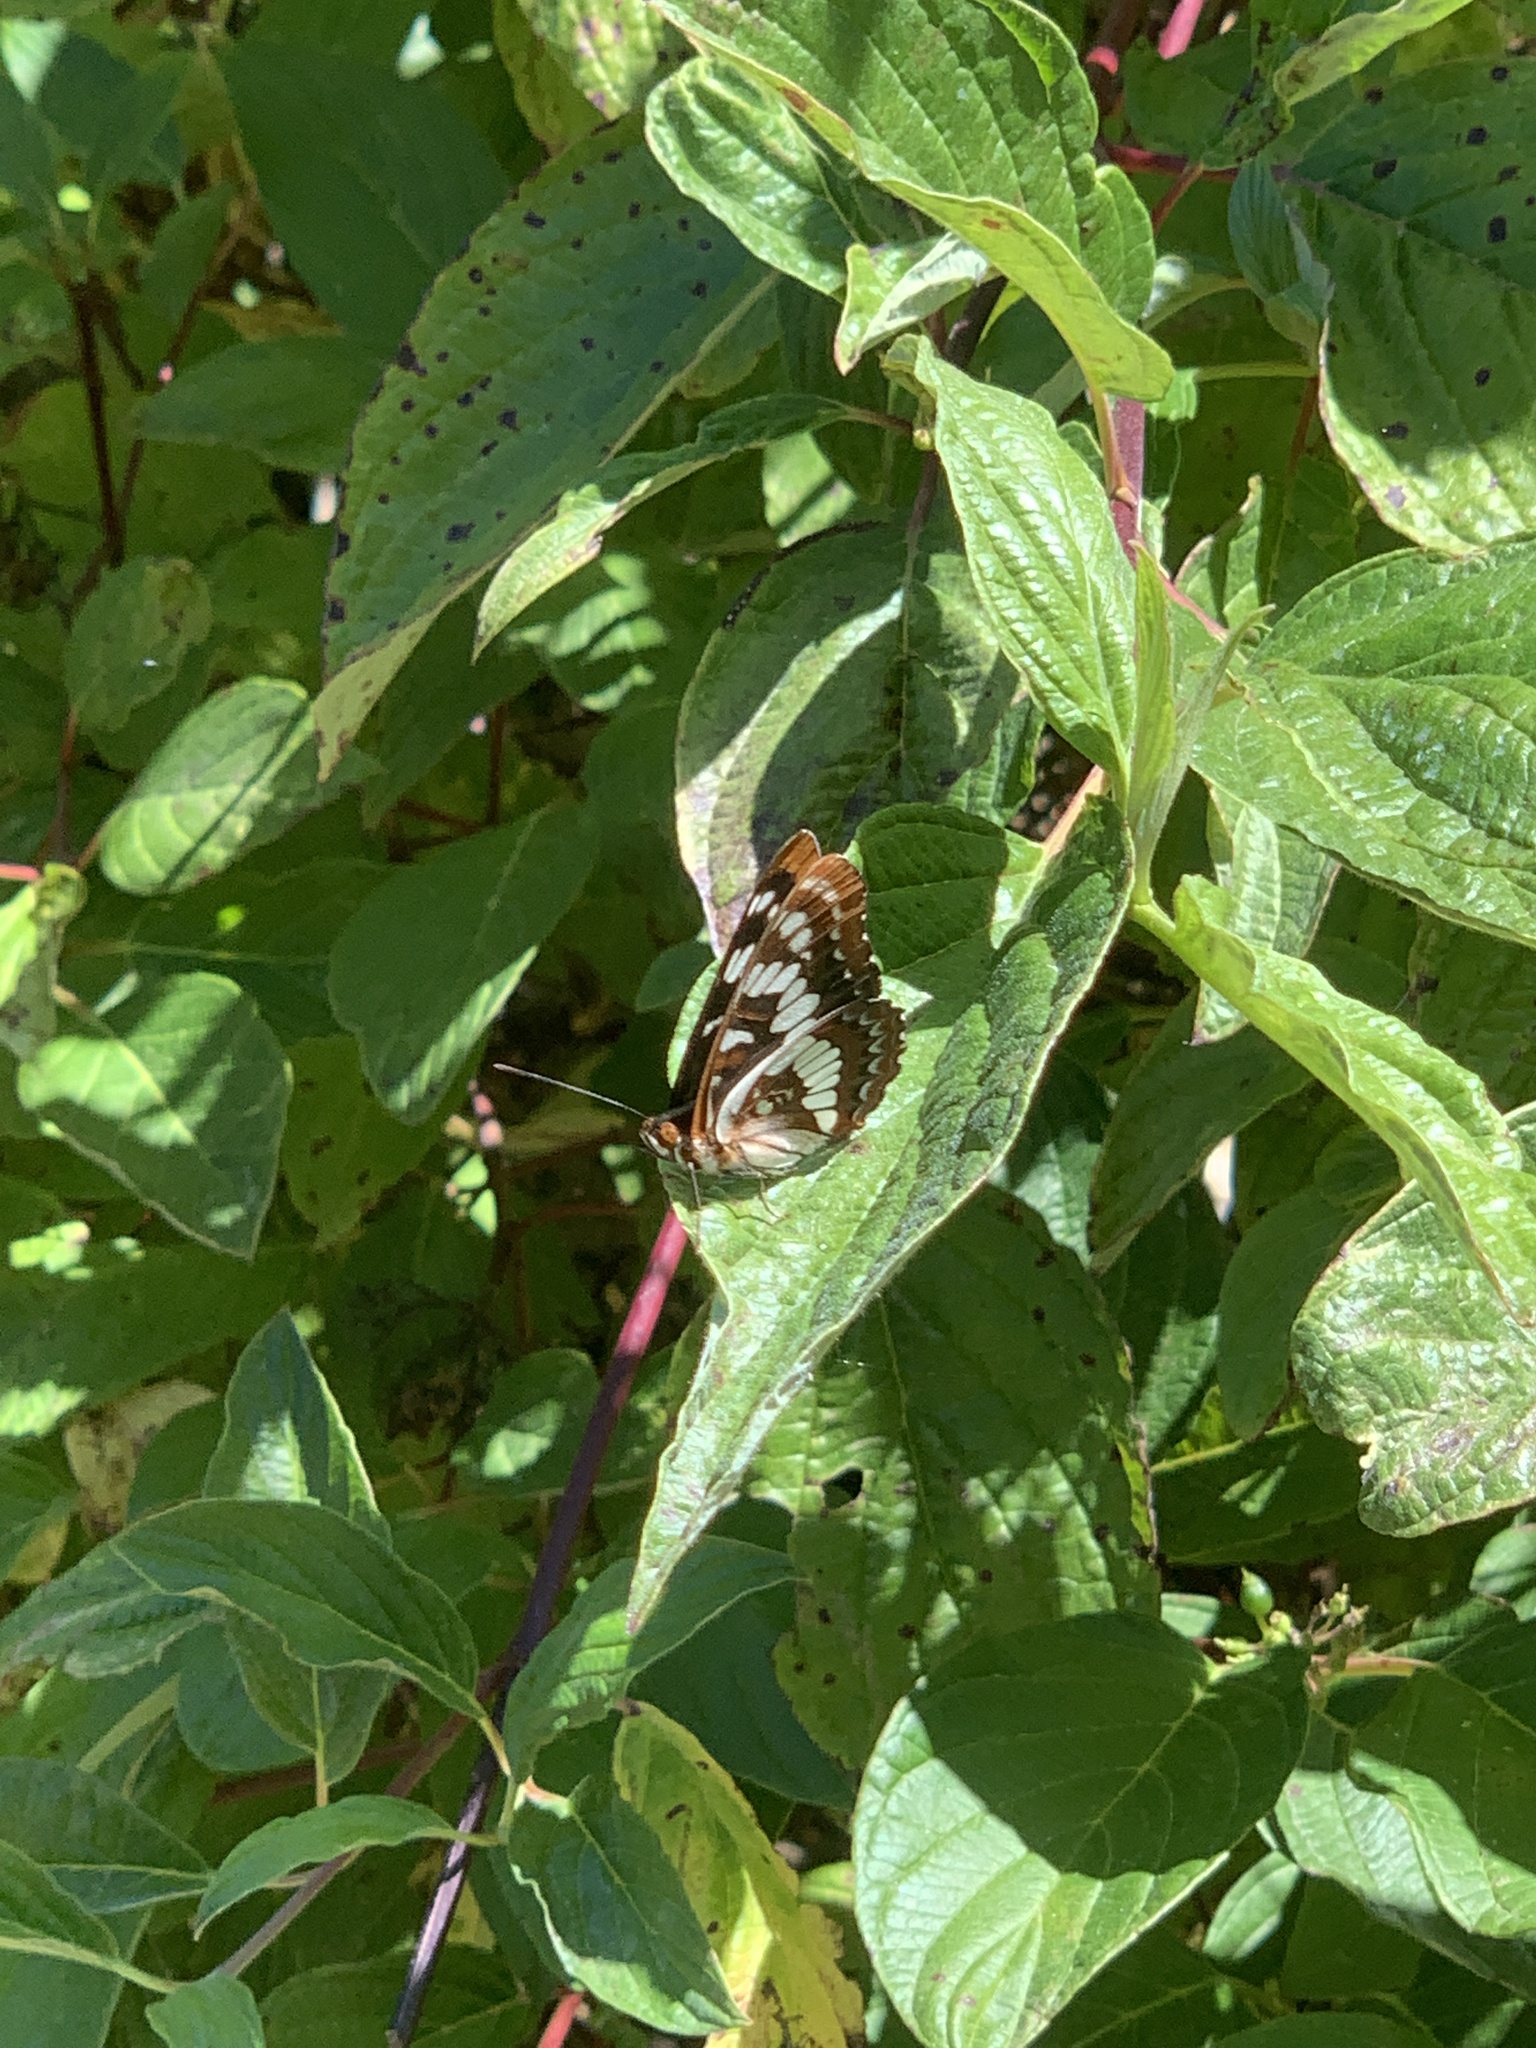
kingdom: Animalia
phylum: Arthropoda
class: Insecta
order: Lepidoptera
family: Nymphalidae
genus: Limenitis
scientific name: Limenitis lorquini
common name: Lorquin's admiral
